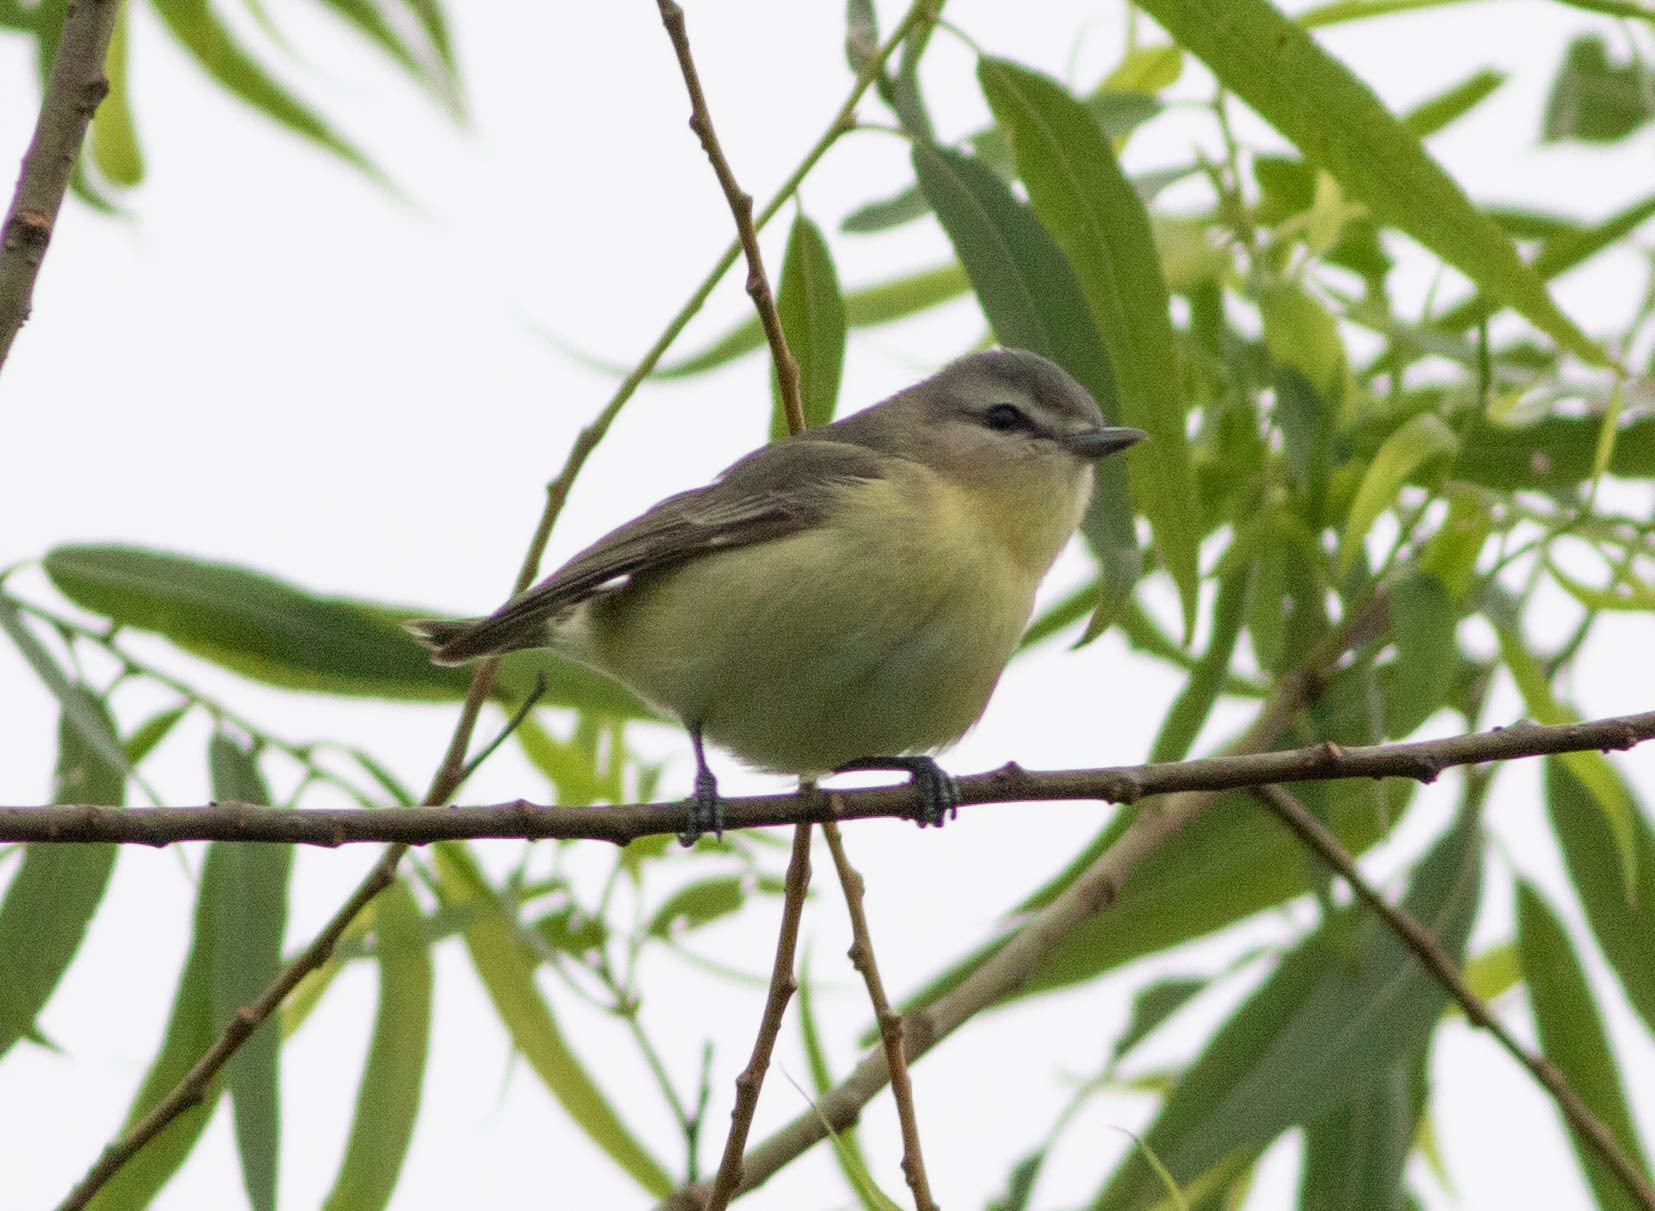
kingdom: Animalia
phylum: Chordata
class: Aves
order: Passeriformes
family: Vireonidae
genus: Vireo
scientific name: Vireo philadelphicus
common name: Philadelphia vireo
